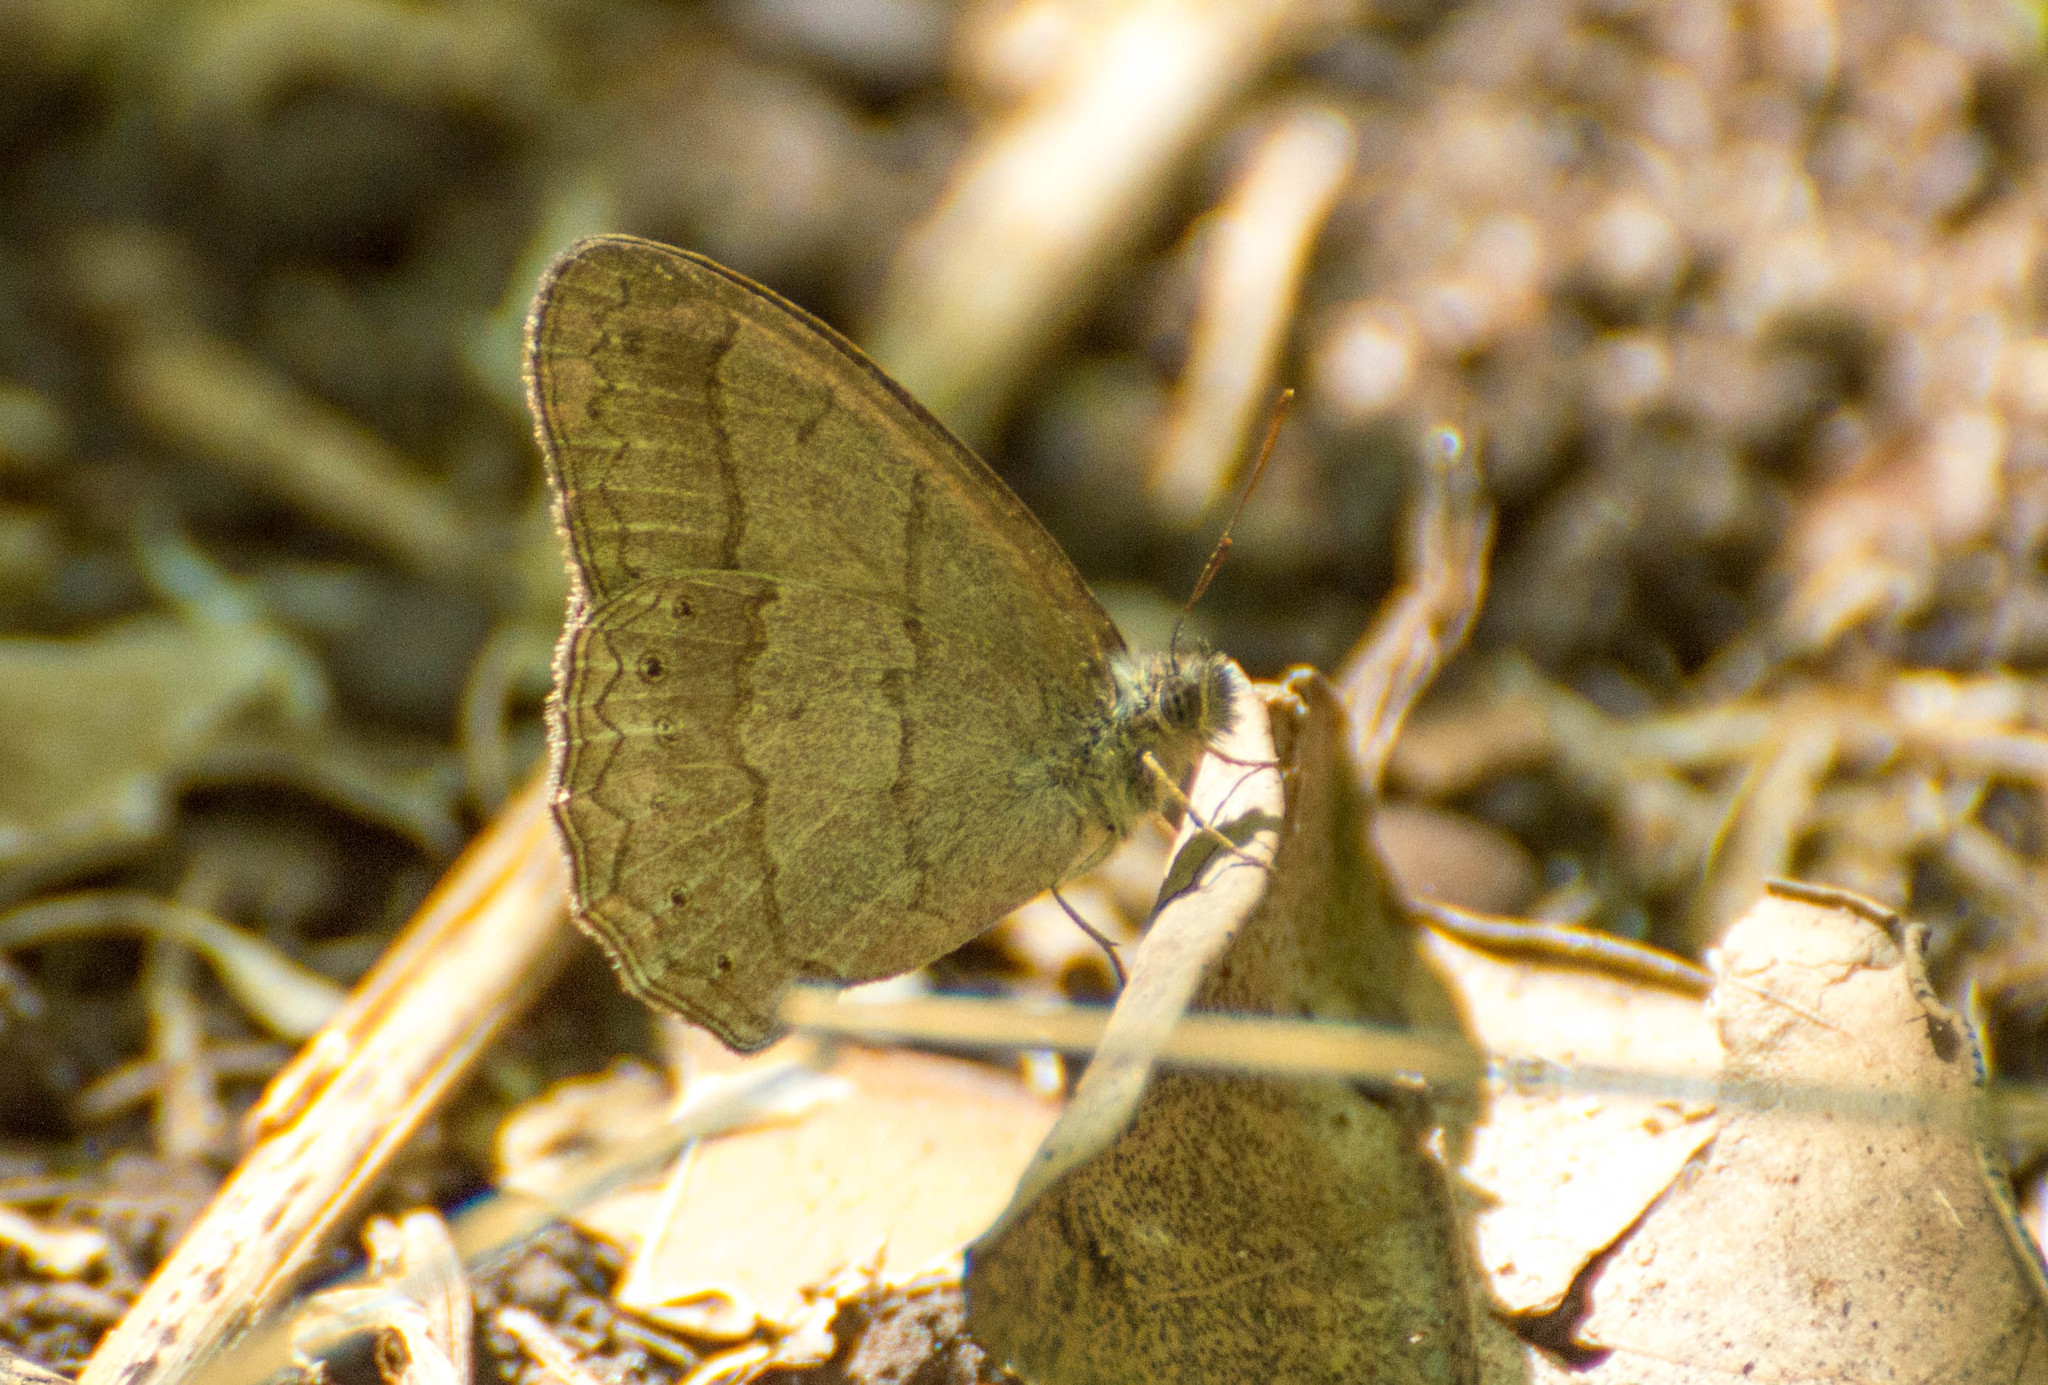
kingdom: Animalia
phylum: Arthropoda
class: Insecta
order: Lepidoptera
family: Nymphalidae
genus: Paryphthimoides
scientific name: Paryphthimoides poltys
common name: Poltys satyr
